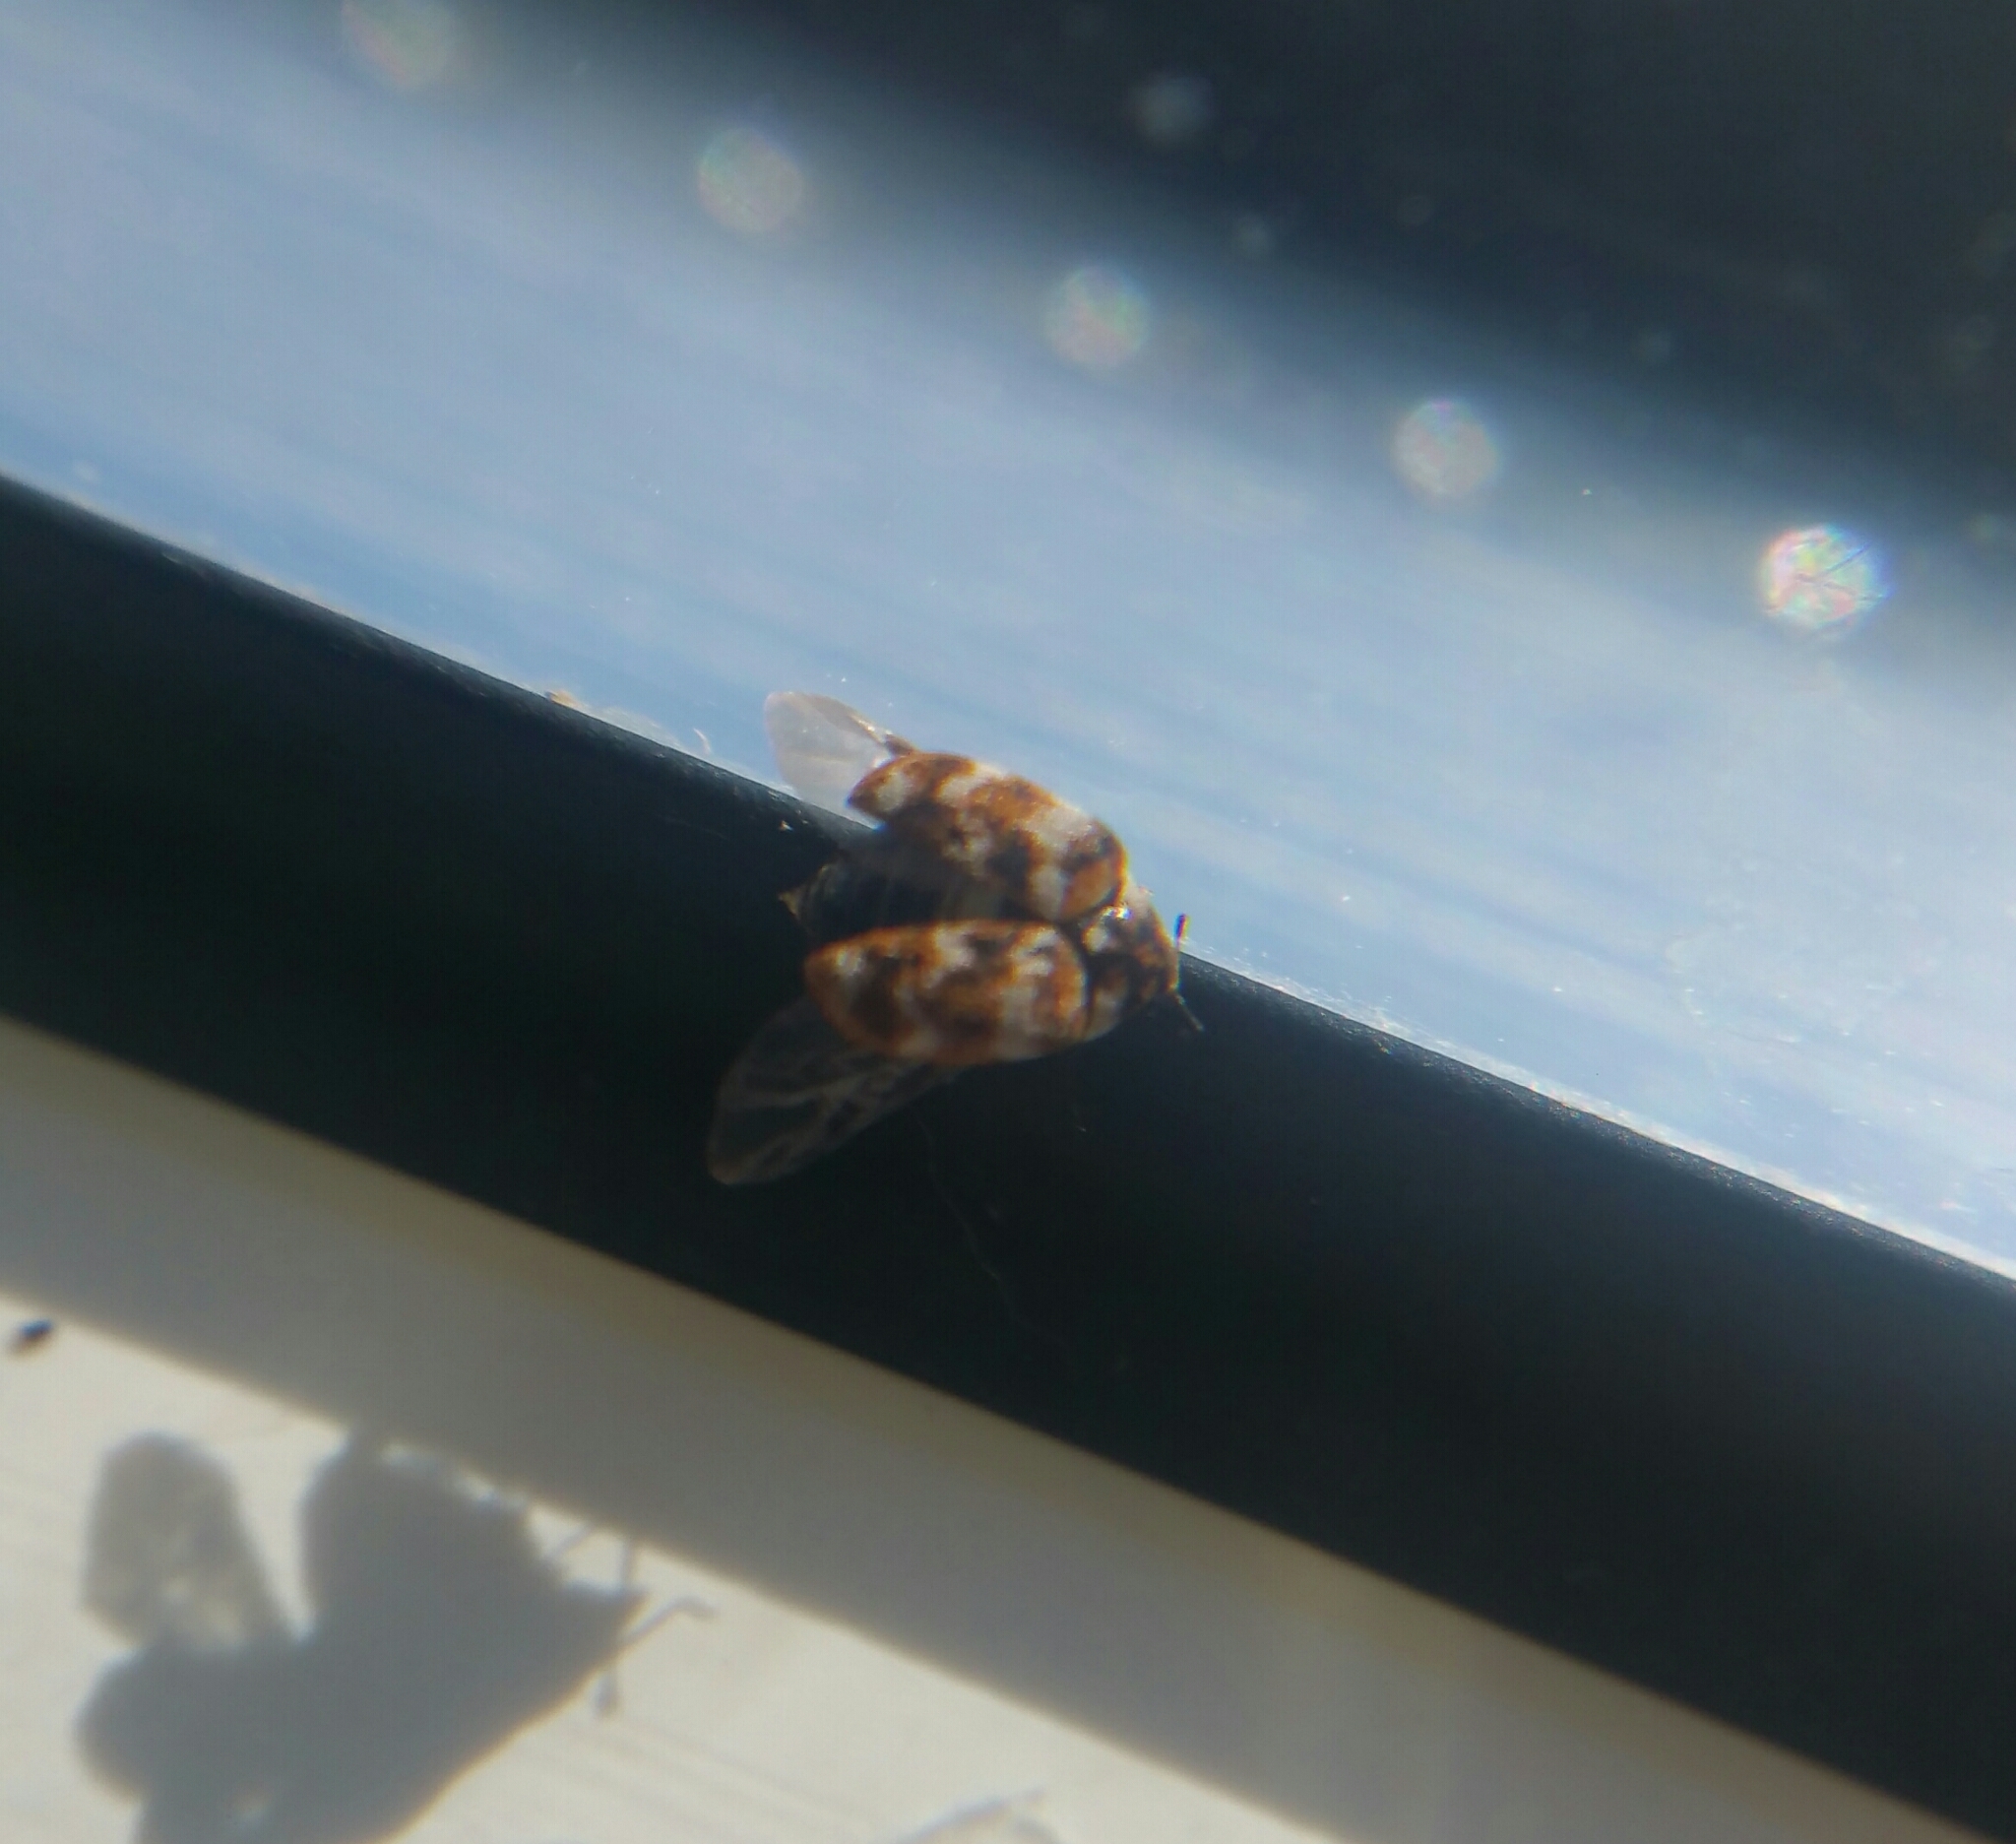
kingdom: Animalia
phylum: Arthropoda
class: Insecta
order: Coleoptera
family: Dermestidae
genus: Anthrenus
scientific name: Anthrenus verbasci
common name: Varied carpet beetle
